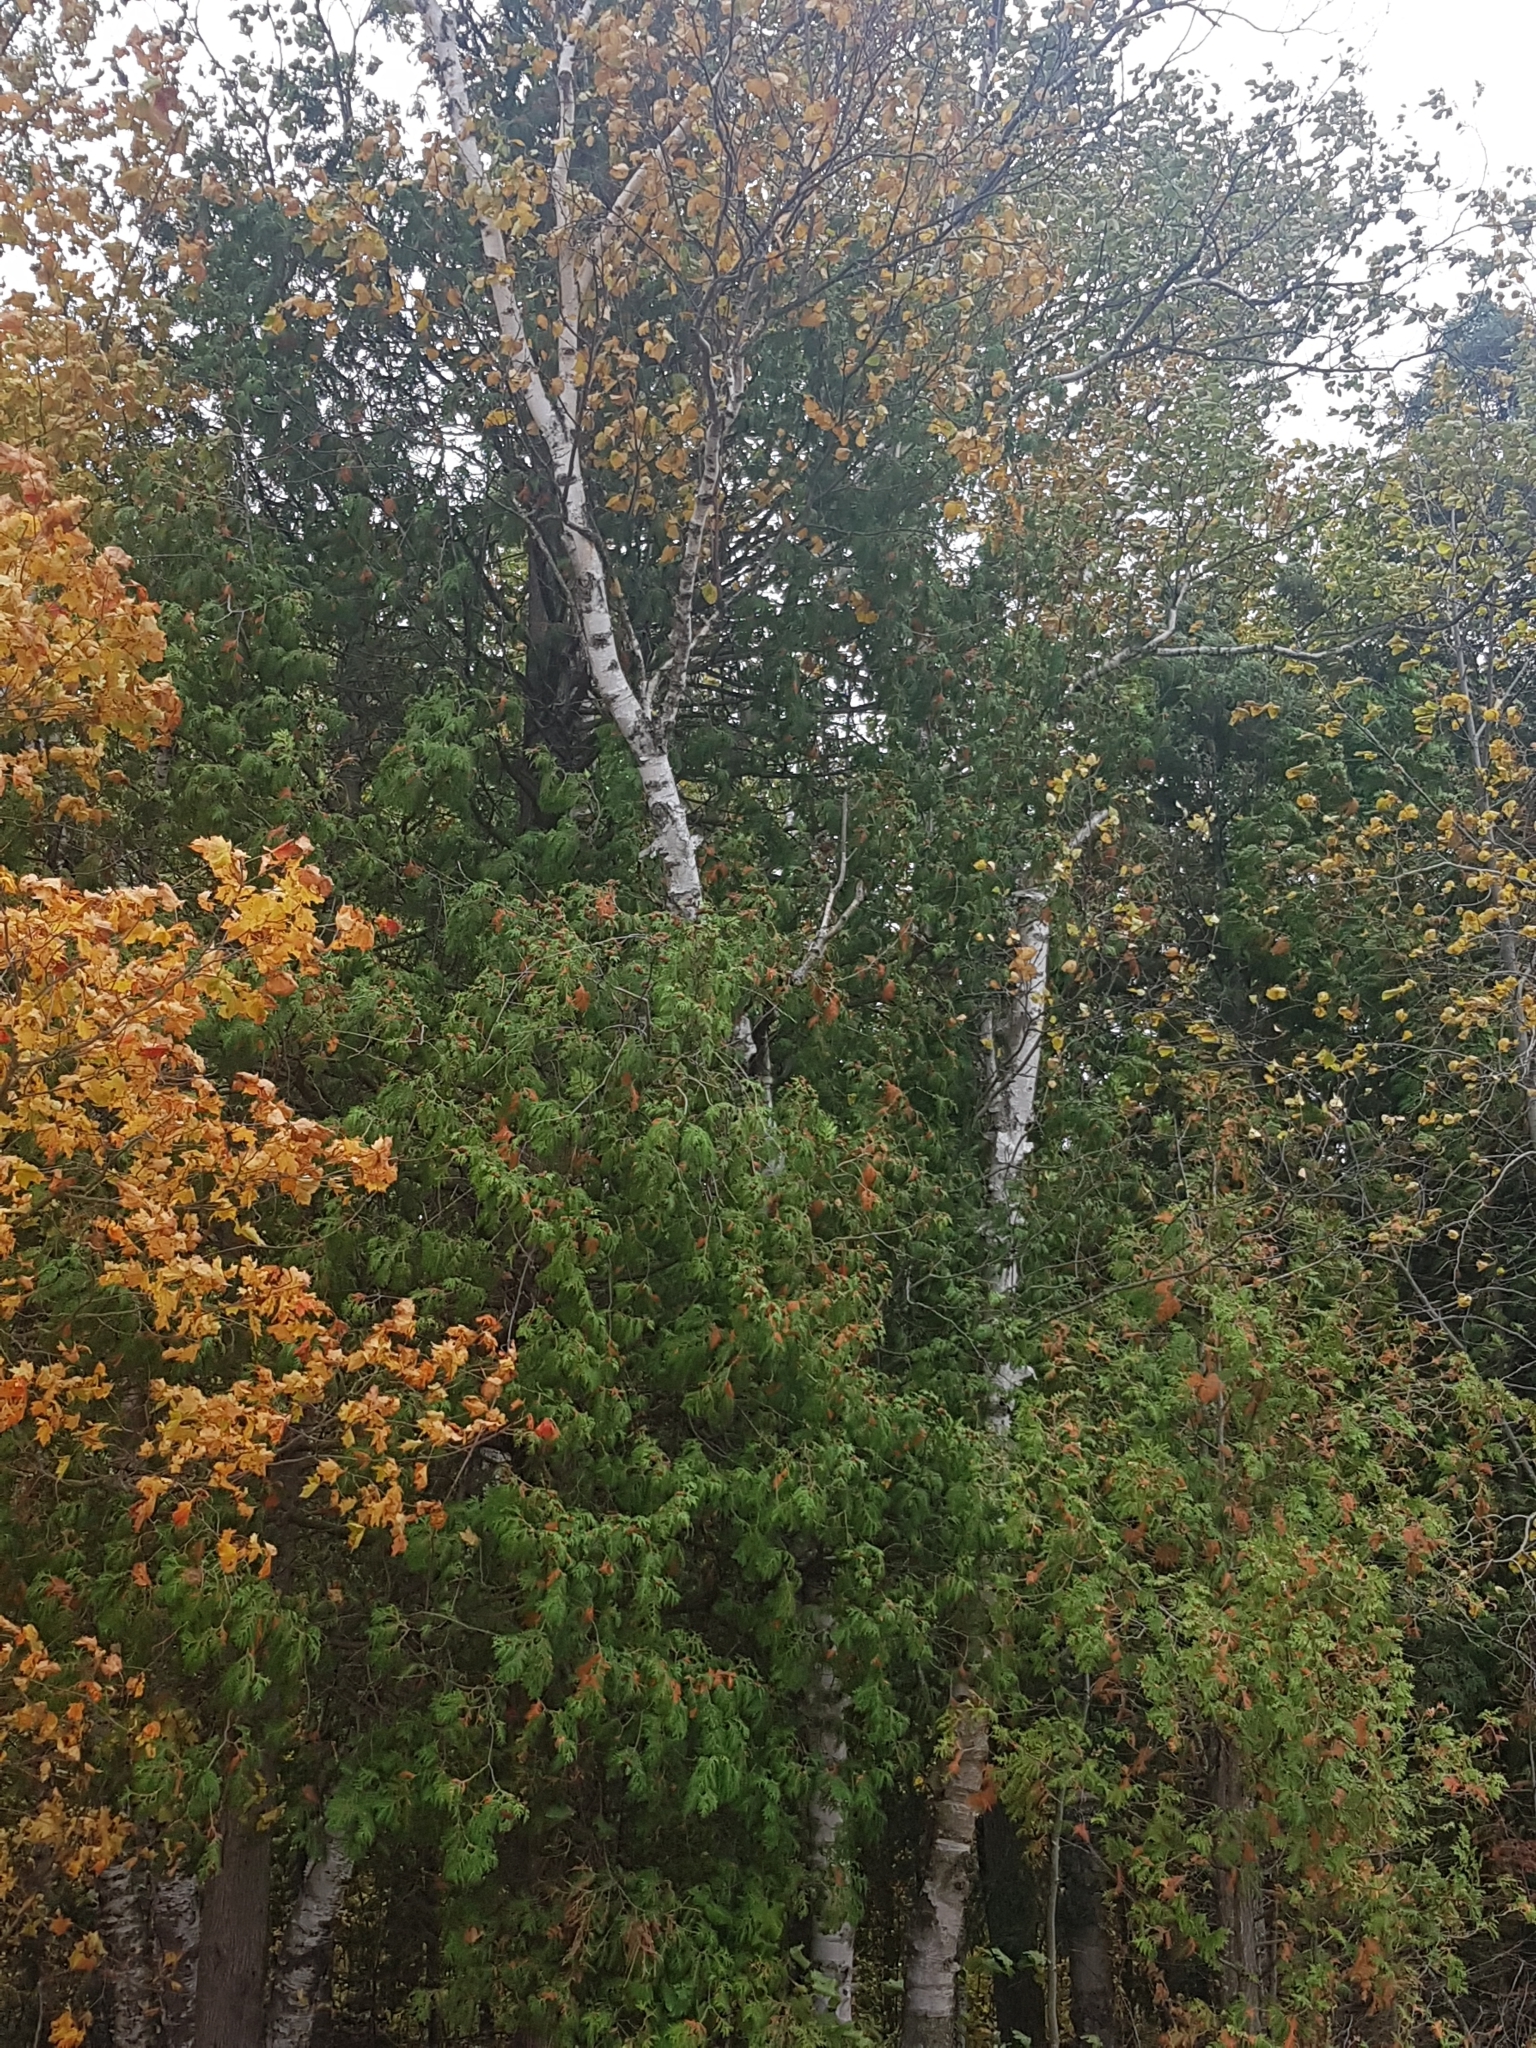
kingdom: Plantae
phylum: Tracheophyta
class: Magnoliopsida
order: Fagales
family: Betulaceae
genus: Betula
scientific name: Betula papyrifera
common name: Paper birch
